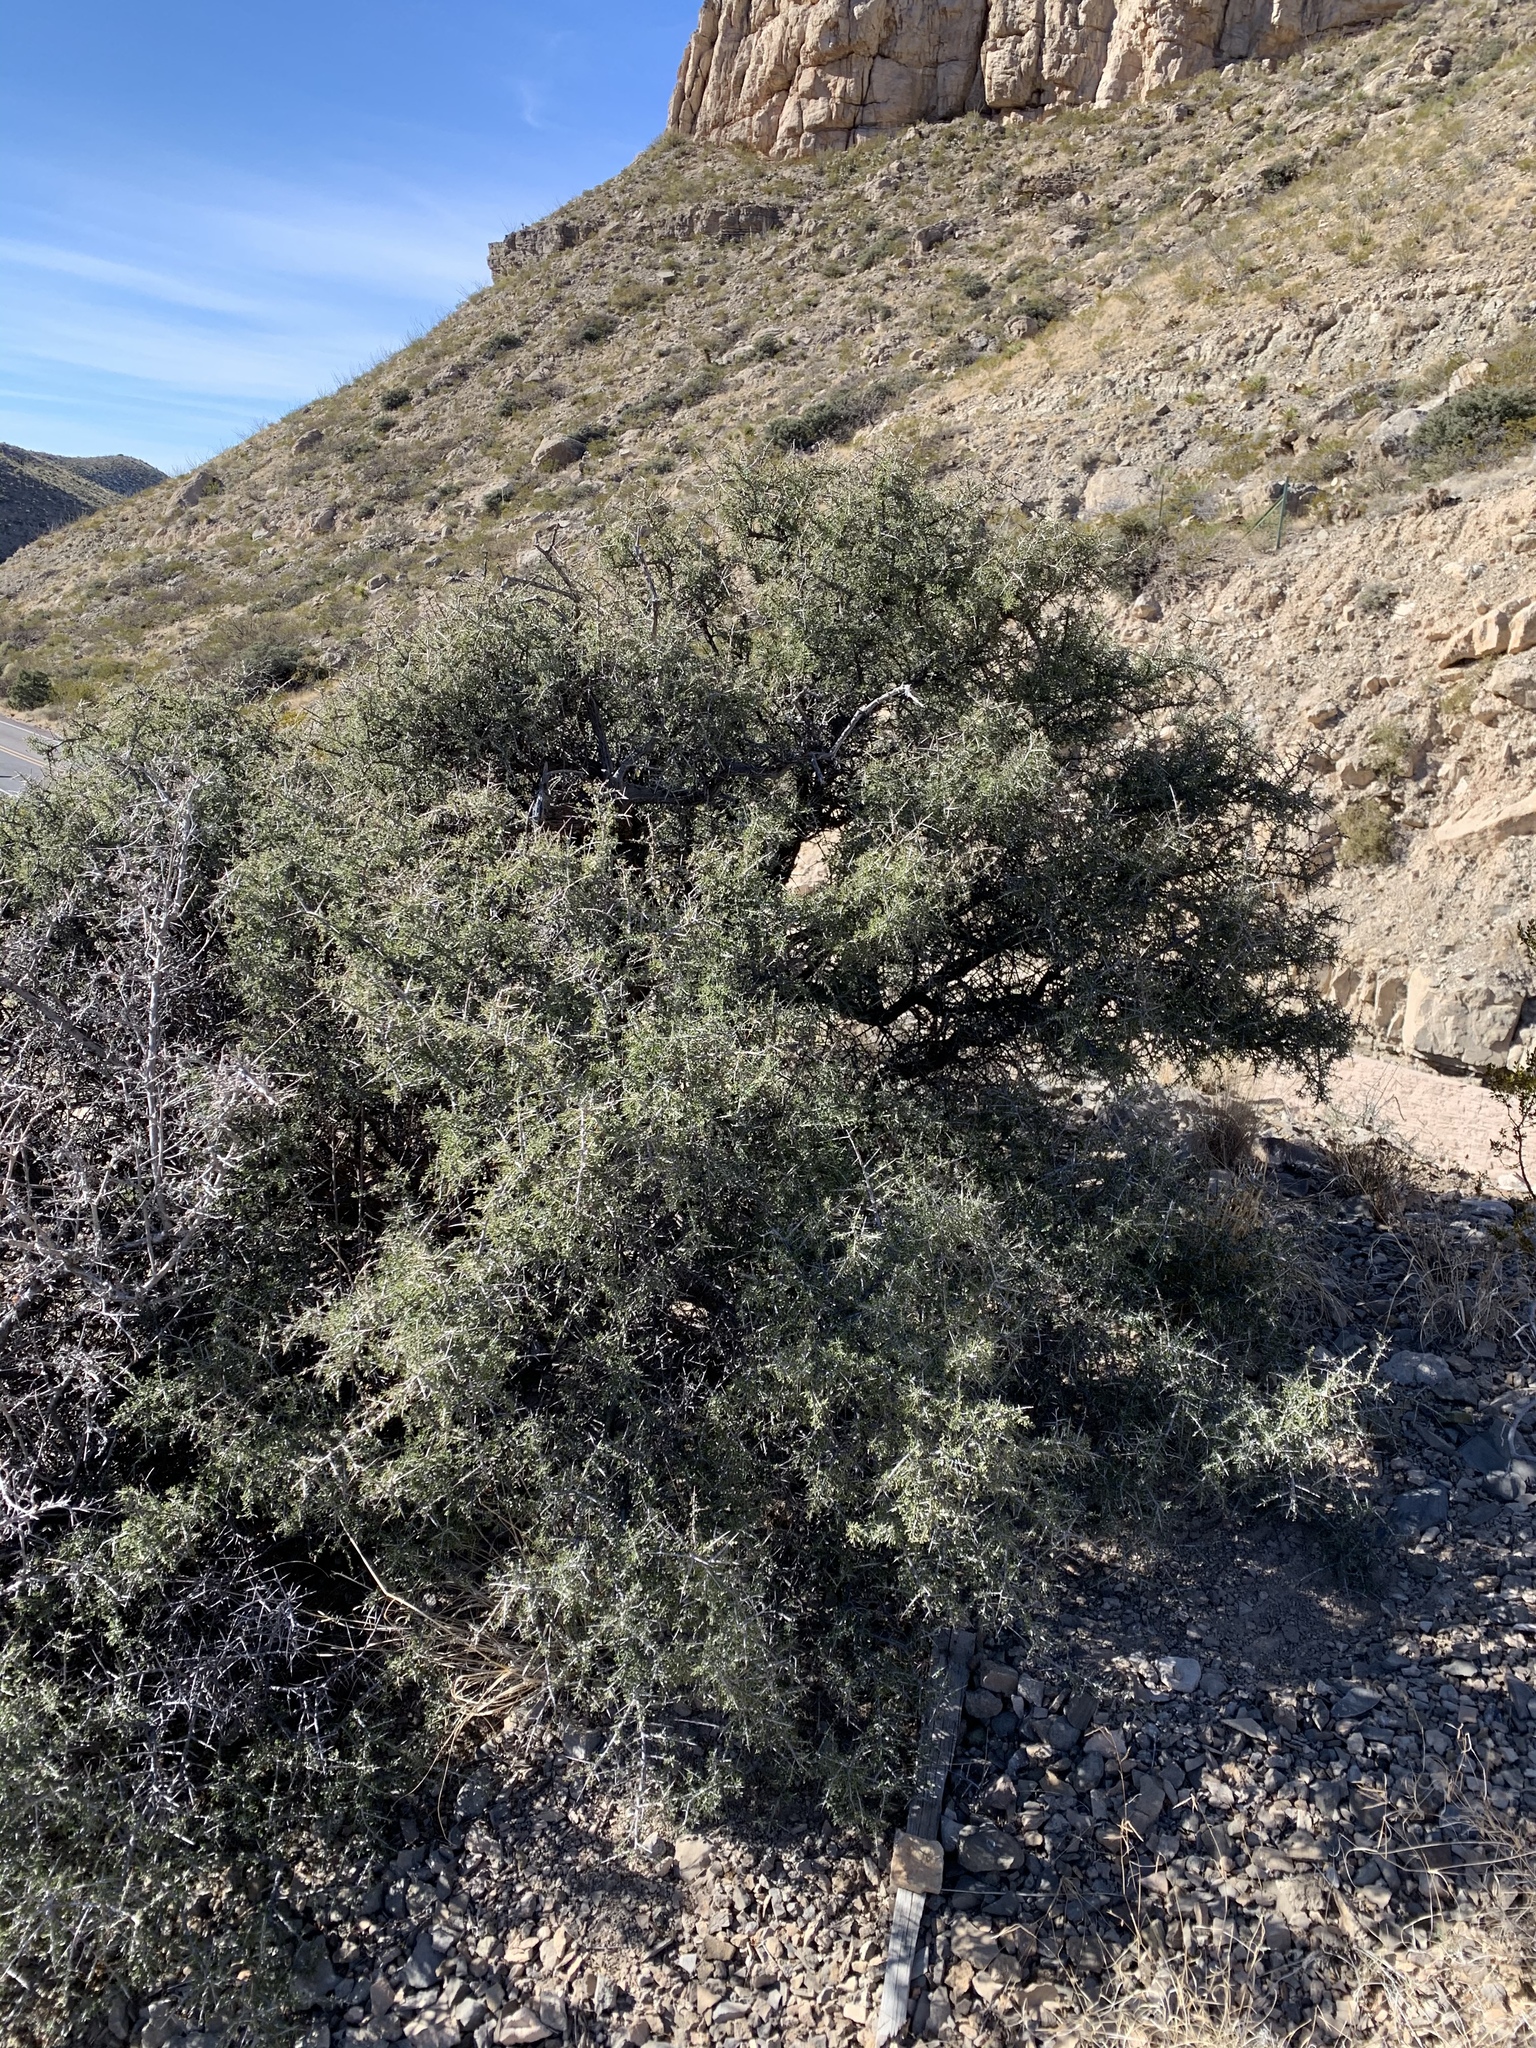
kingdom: Plantae
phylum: Tracheophyta
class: Magnoliopsida
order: Rosales
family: Rhamnaceae
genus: Condalia
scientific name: Condalia warnockii
